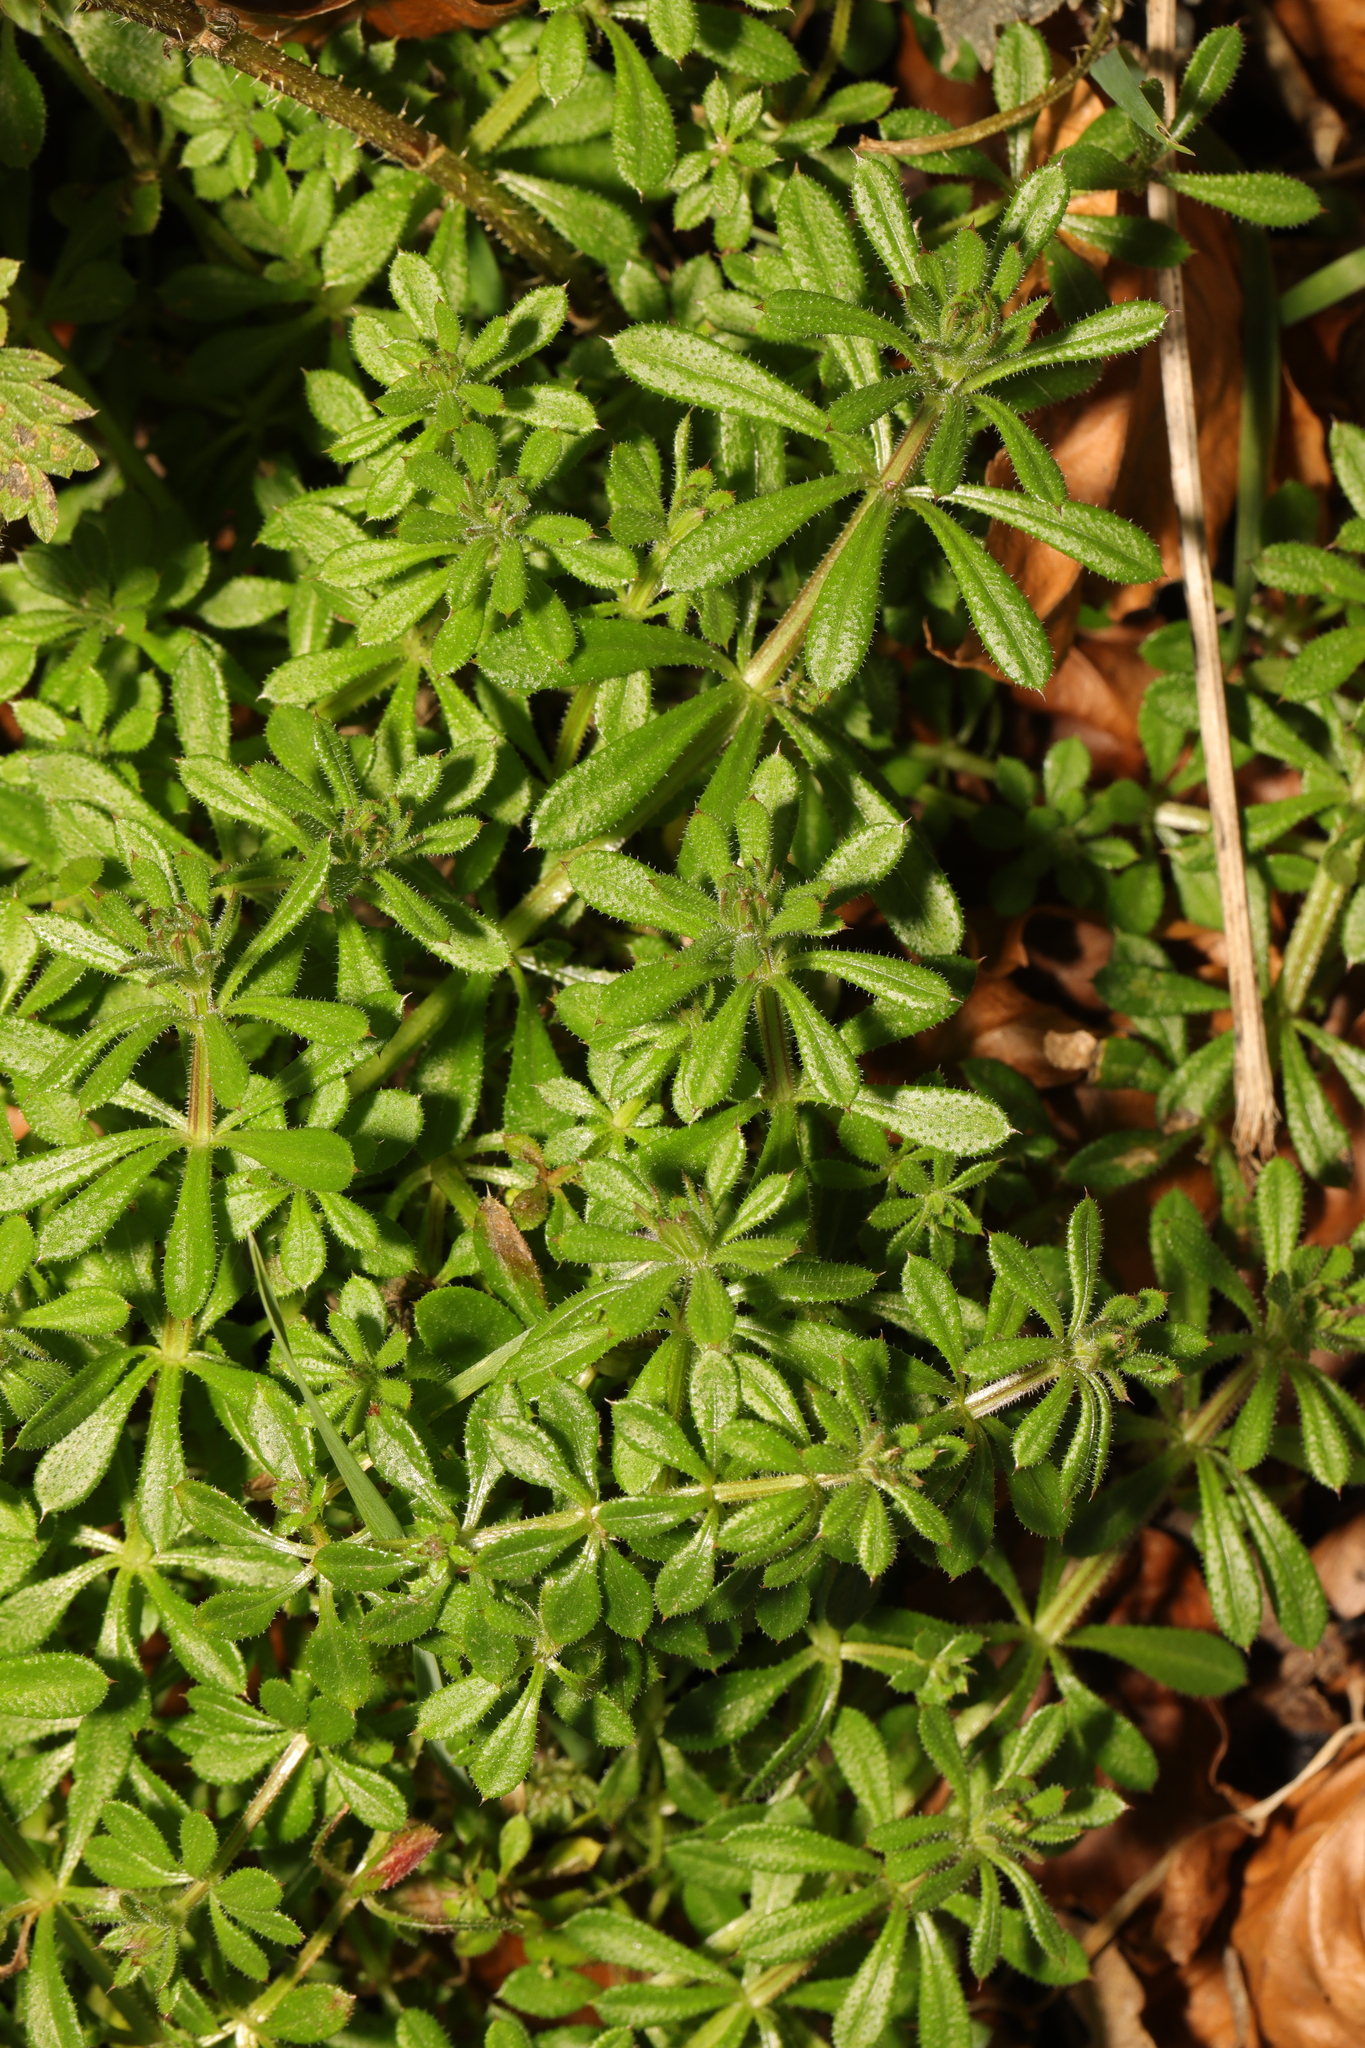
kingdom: Plantae
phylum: Tracheophyta
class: Magnoliopsida
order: Gentianales
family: Rubiaceae
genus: Galium
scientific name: Galium aparine
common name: Cleavers
